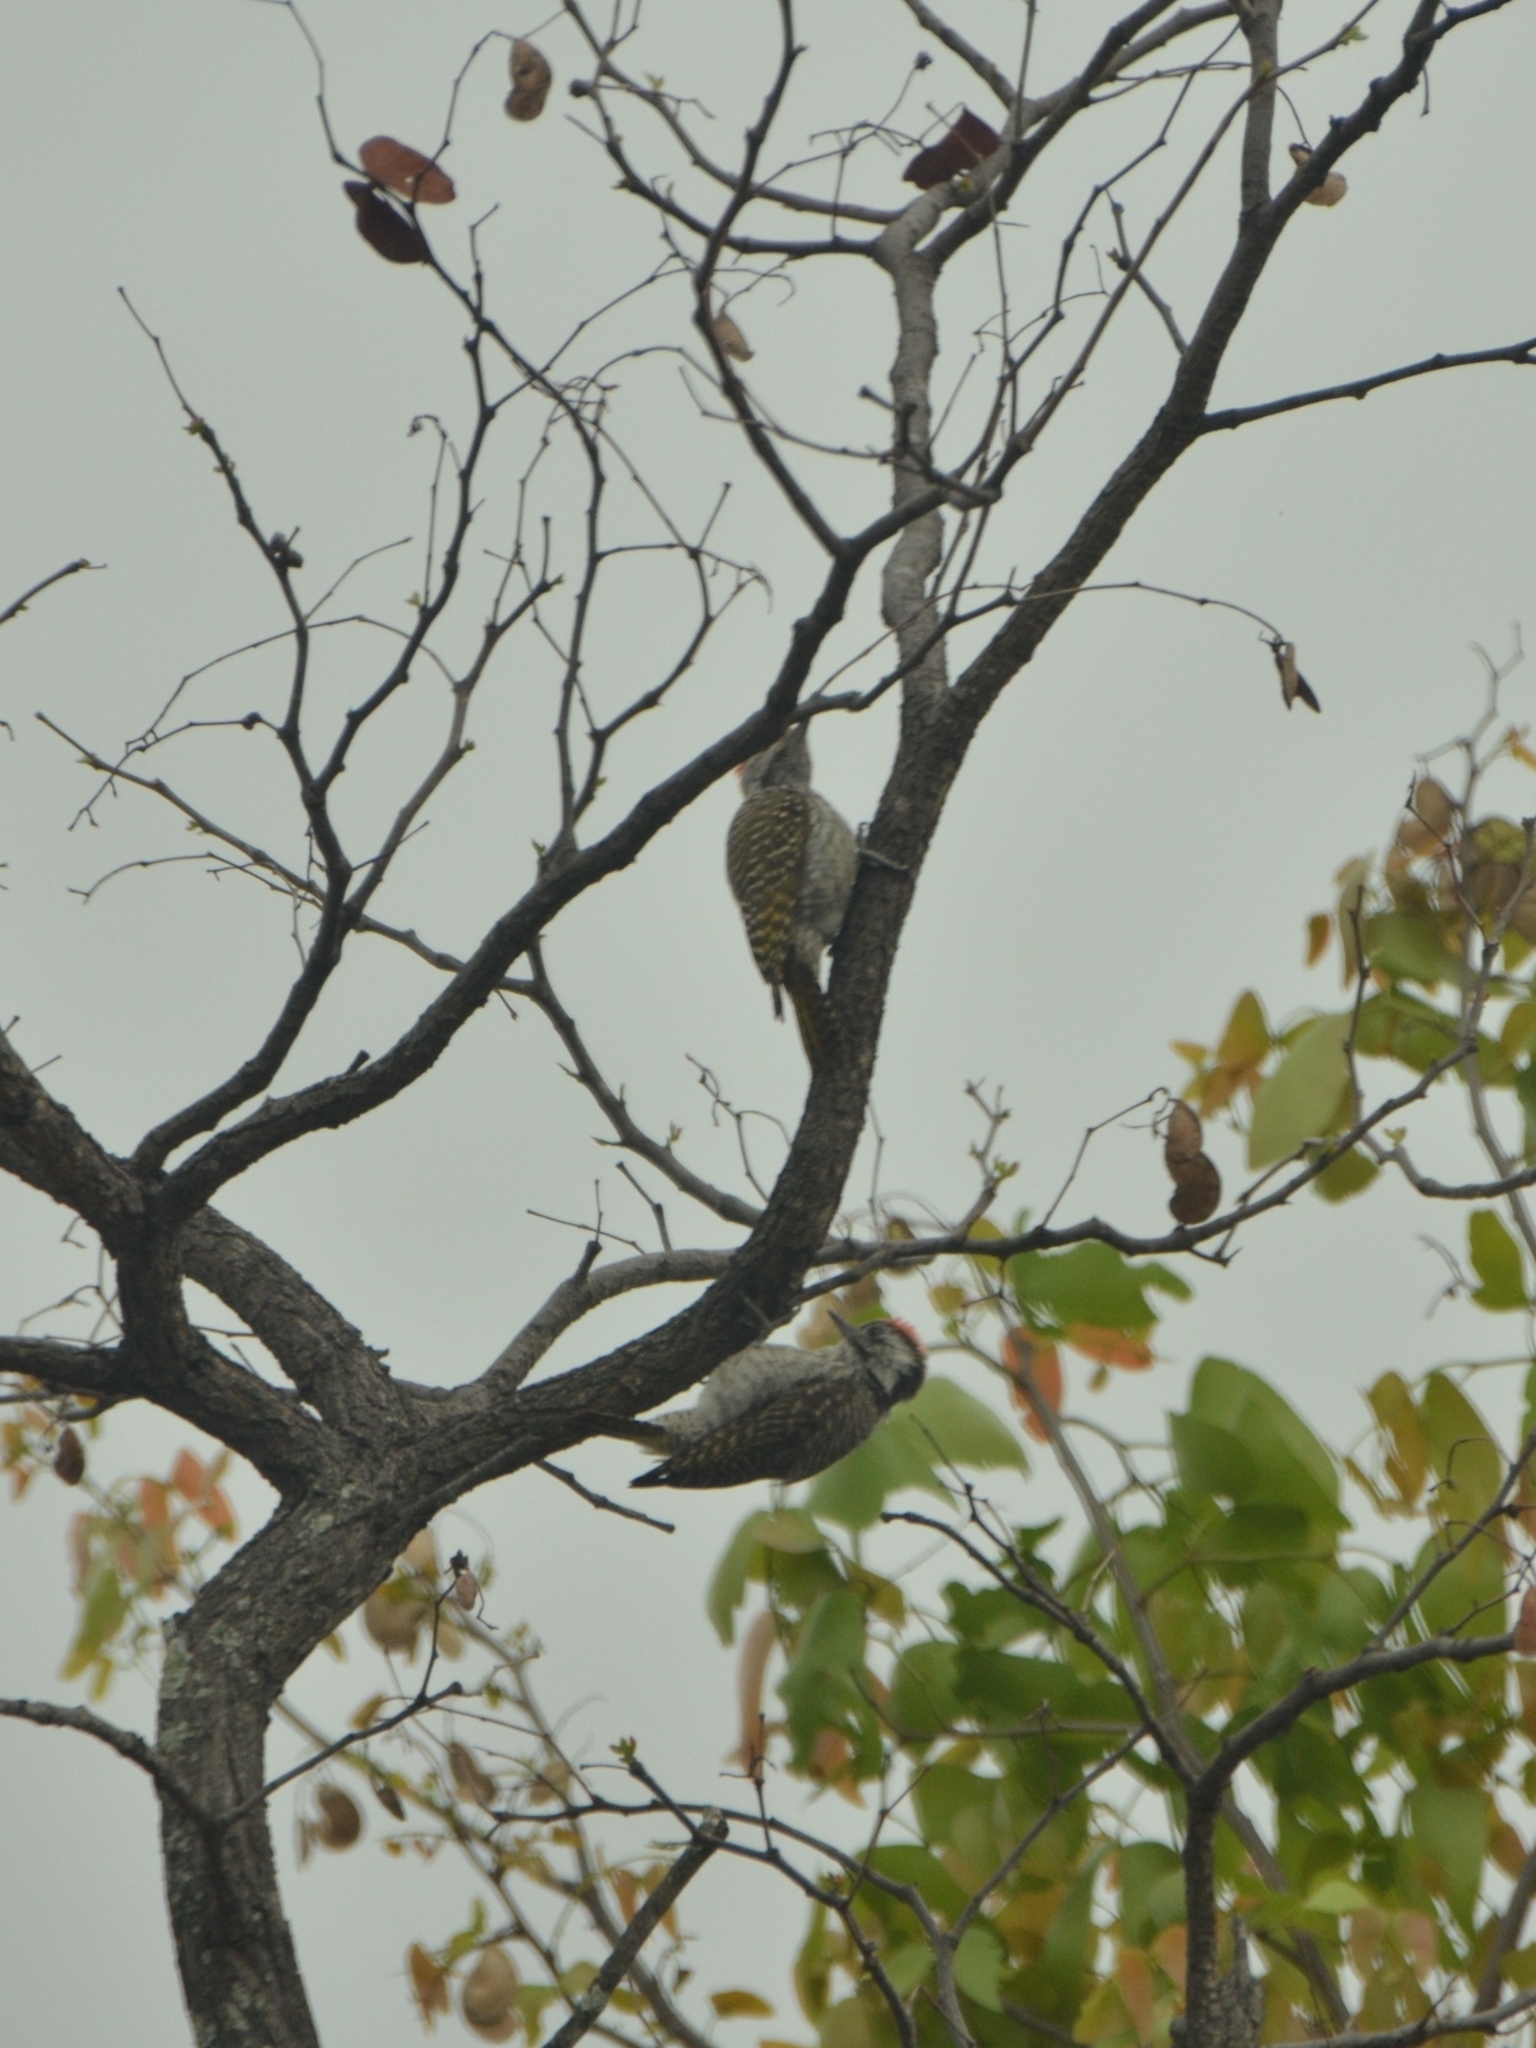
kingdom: Animalia
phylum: Chordata
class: Aves
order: Piciformes
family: Picidae
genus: Dendropicos
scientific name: Dendropicos fuscescens
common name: Cardinal woodpecker
